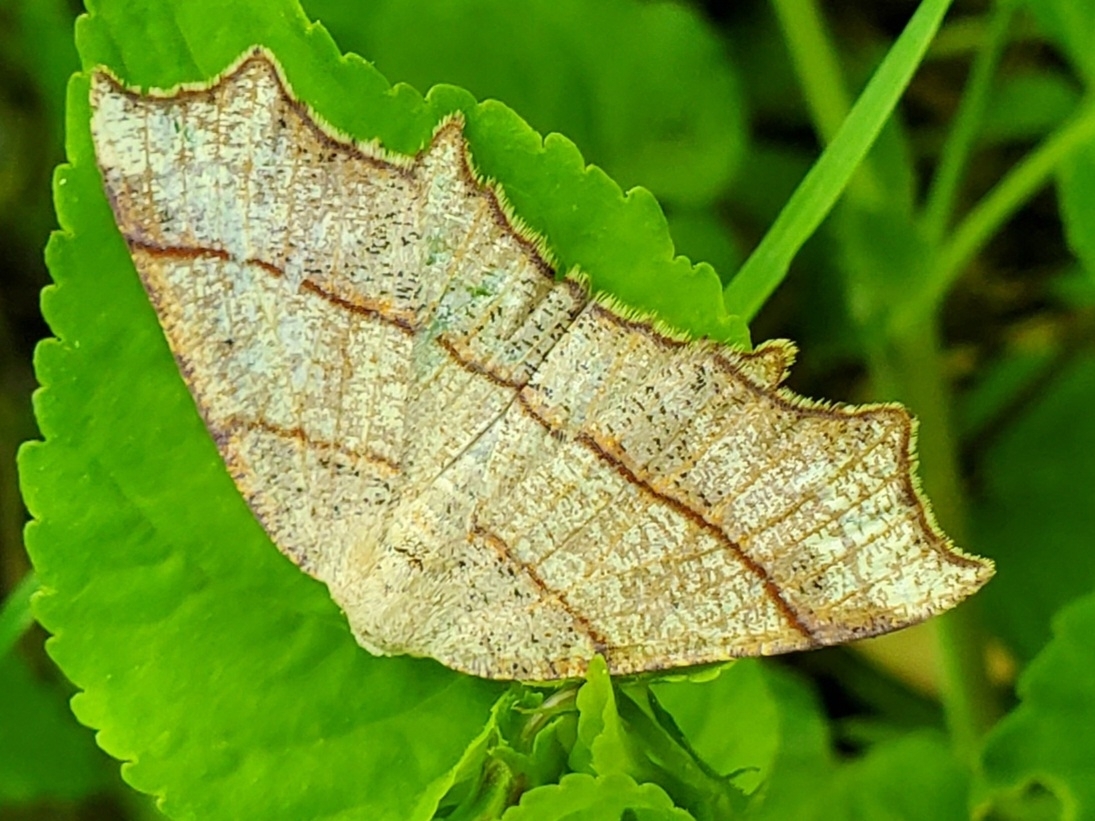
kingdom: Animalia
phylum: Arthropoda
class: Insecta
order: Lepidoptera
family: Geometridae
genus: Besma
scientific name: Besma quercivoraria
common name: Oak besma
